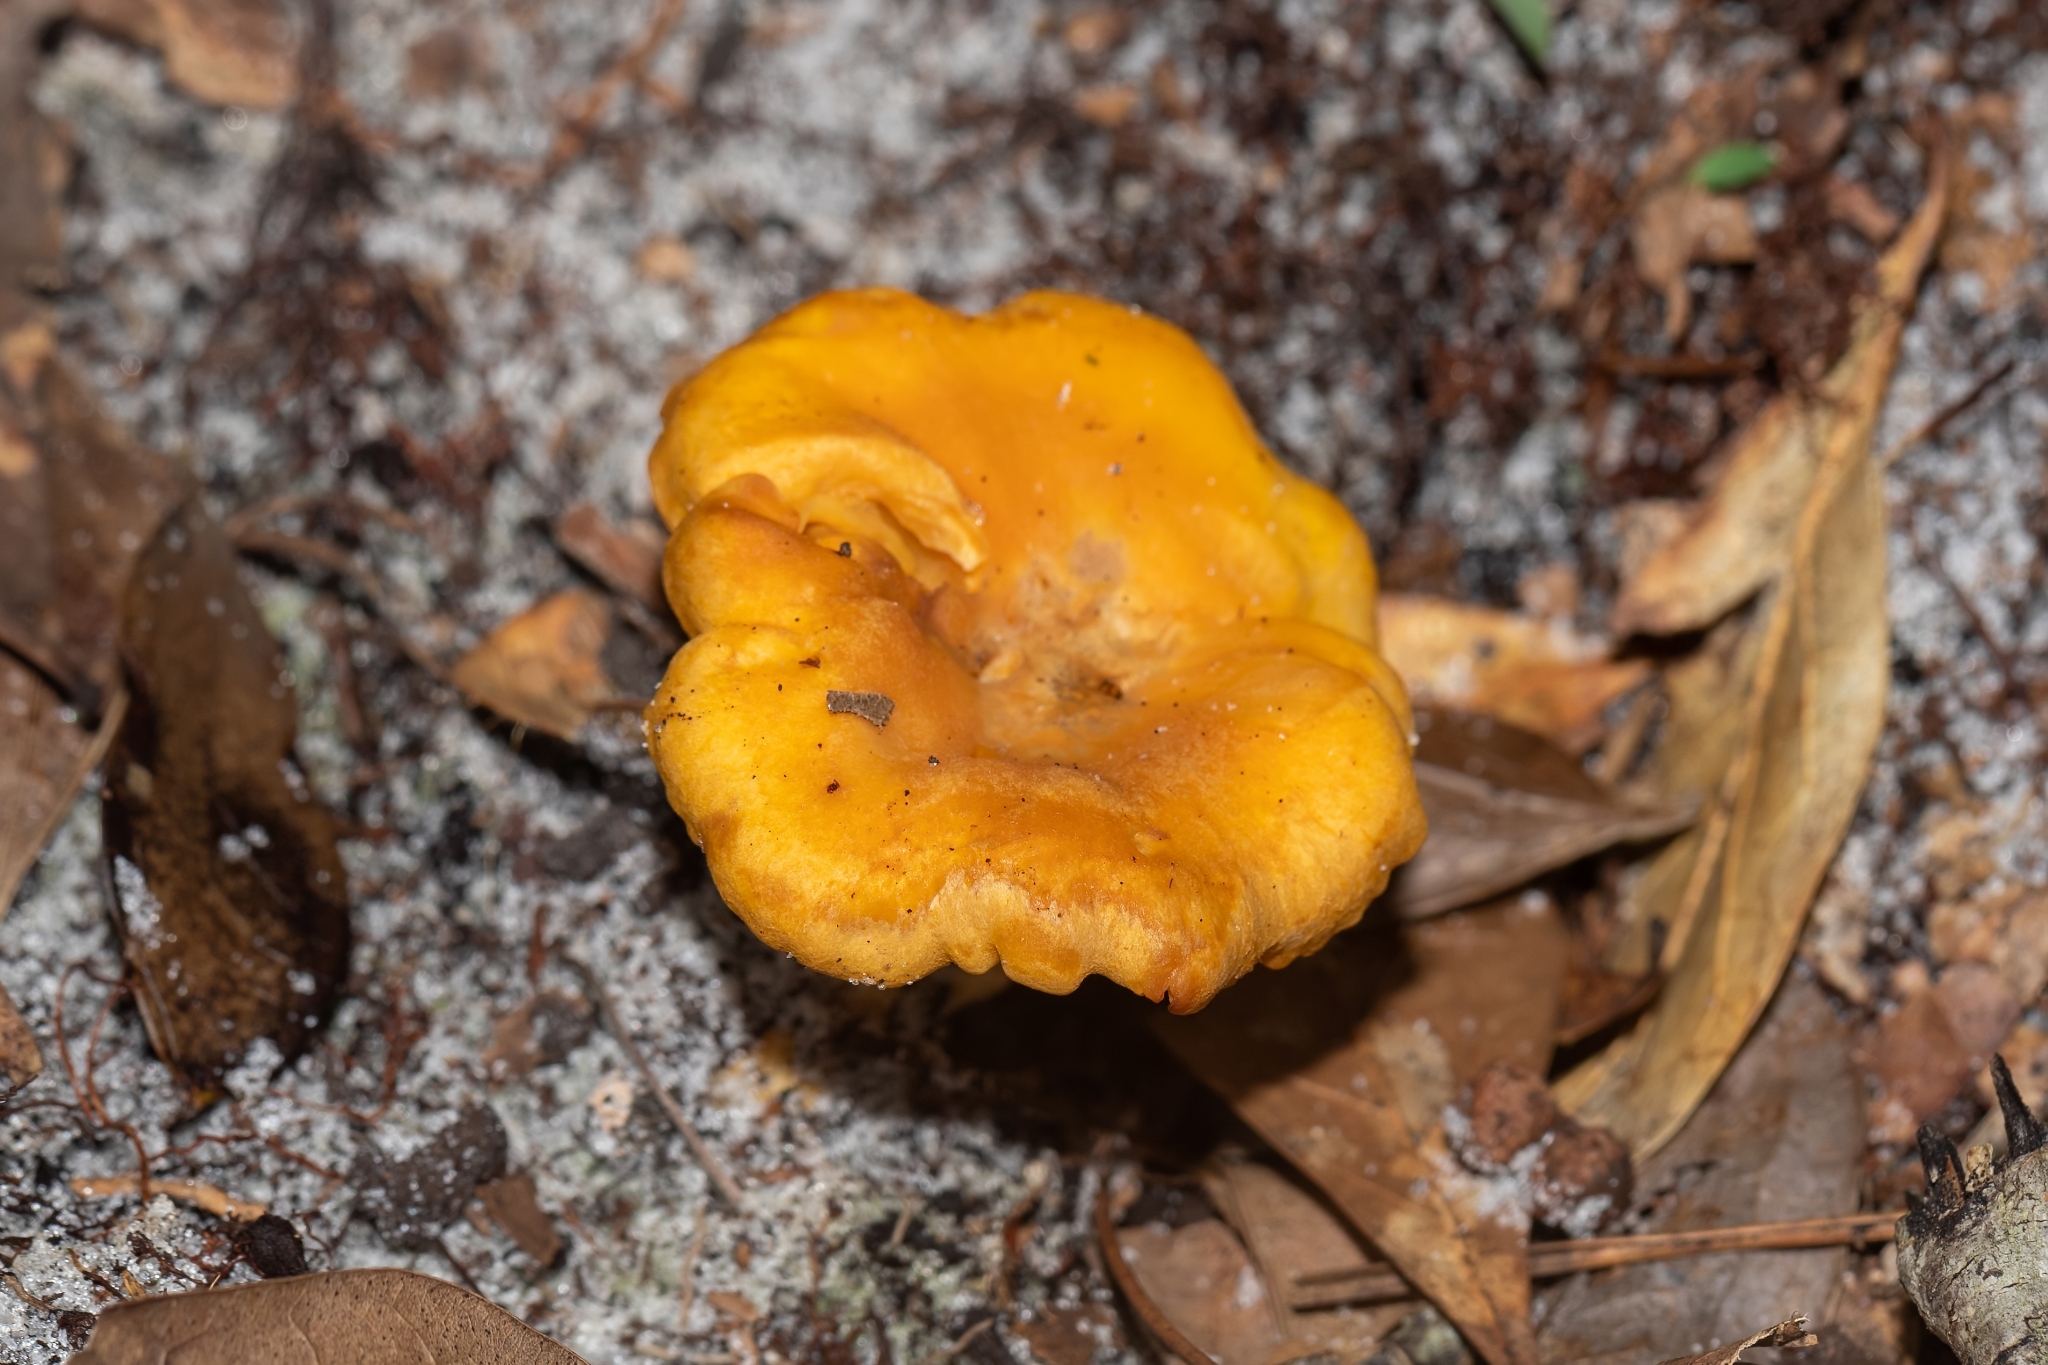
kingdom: Fungi
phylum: Basidiomycota
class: Agaricomycetes
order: Cantharellales
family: Hydnaceae
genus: Cantharellus
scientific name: Cantharellus tenuithrix
